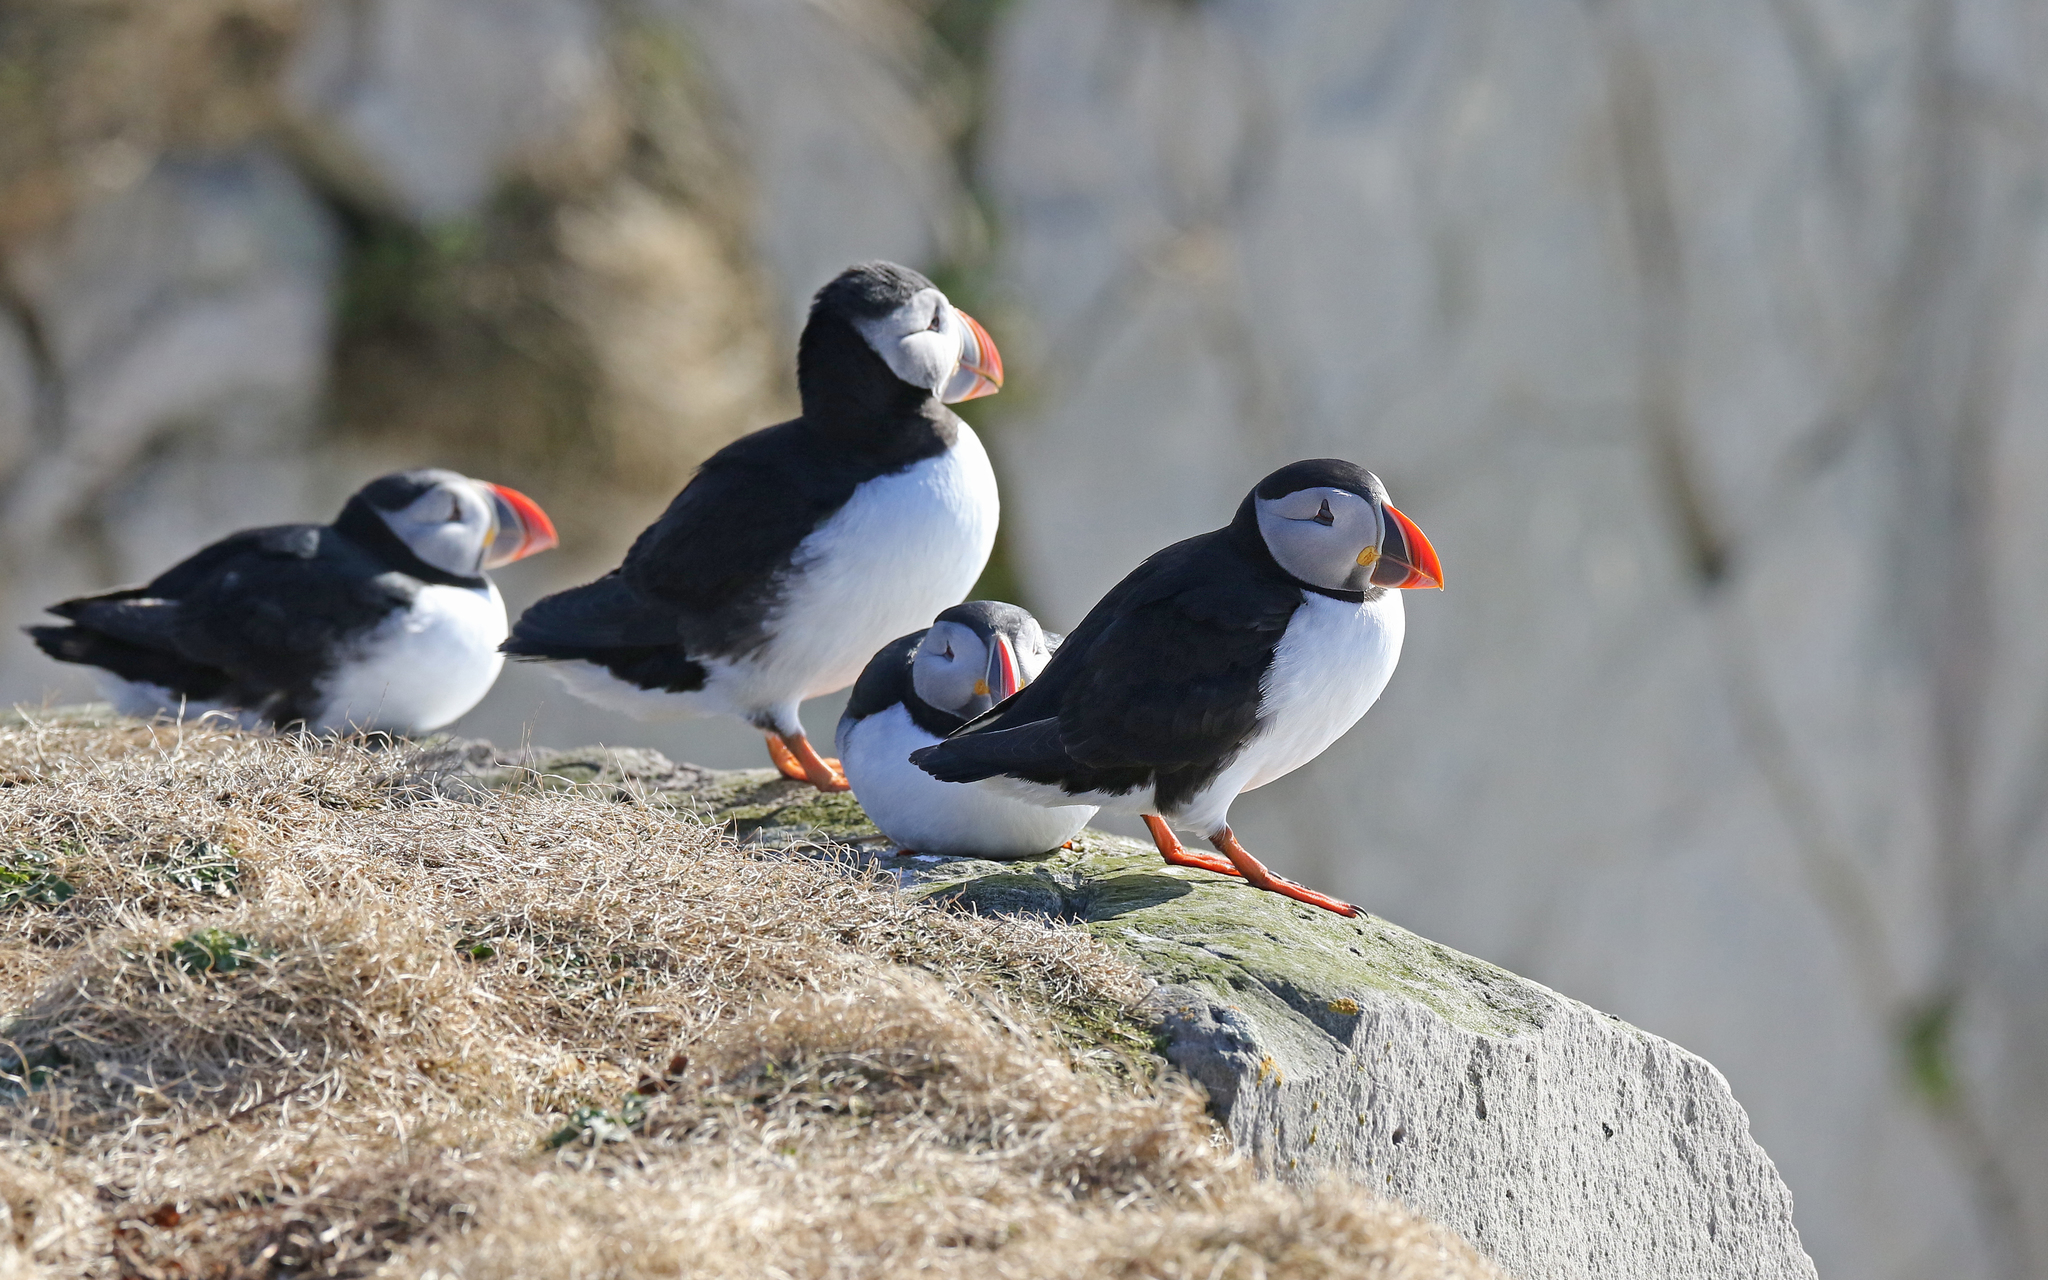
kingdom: Animalia
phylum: Chordata
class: Aves
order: Charadriiformes
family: Alcidae
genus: Fratercula
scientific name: Fratercula arctica
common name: Atlantic puffin
